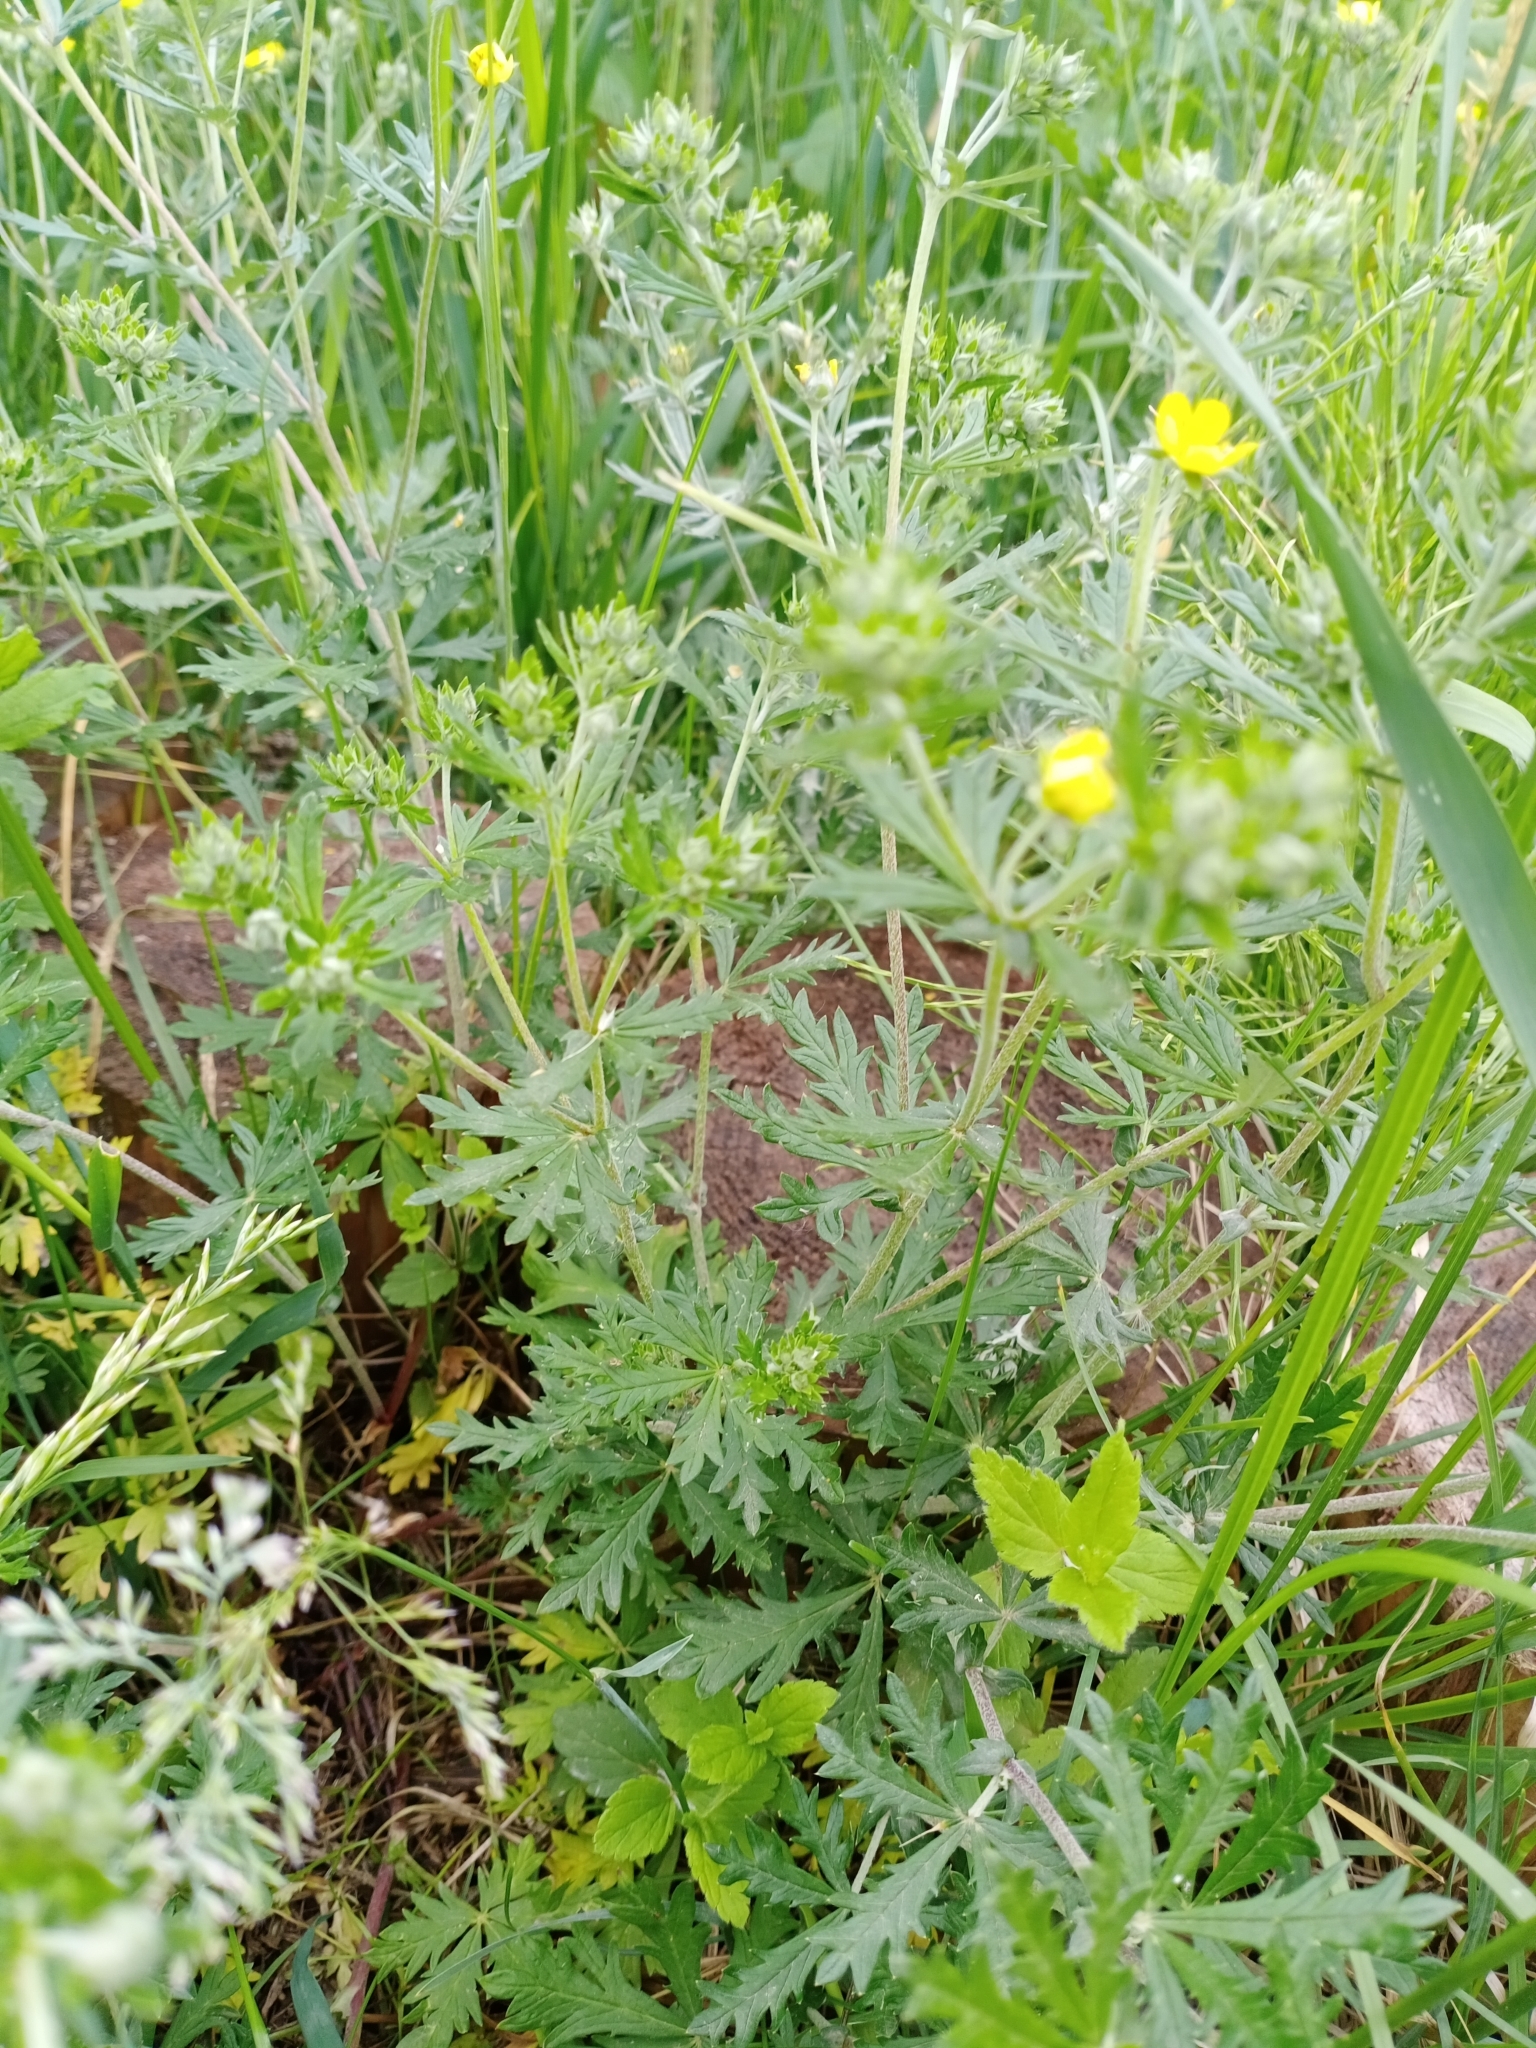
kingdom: Plantae
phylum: Tracheophyta
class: Magnoliopsida
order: Rosales
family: Rosaceae
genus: Potentilla
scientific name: Potentilla argentea
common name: Hoary cinquefoil
